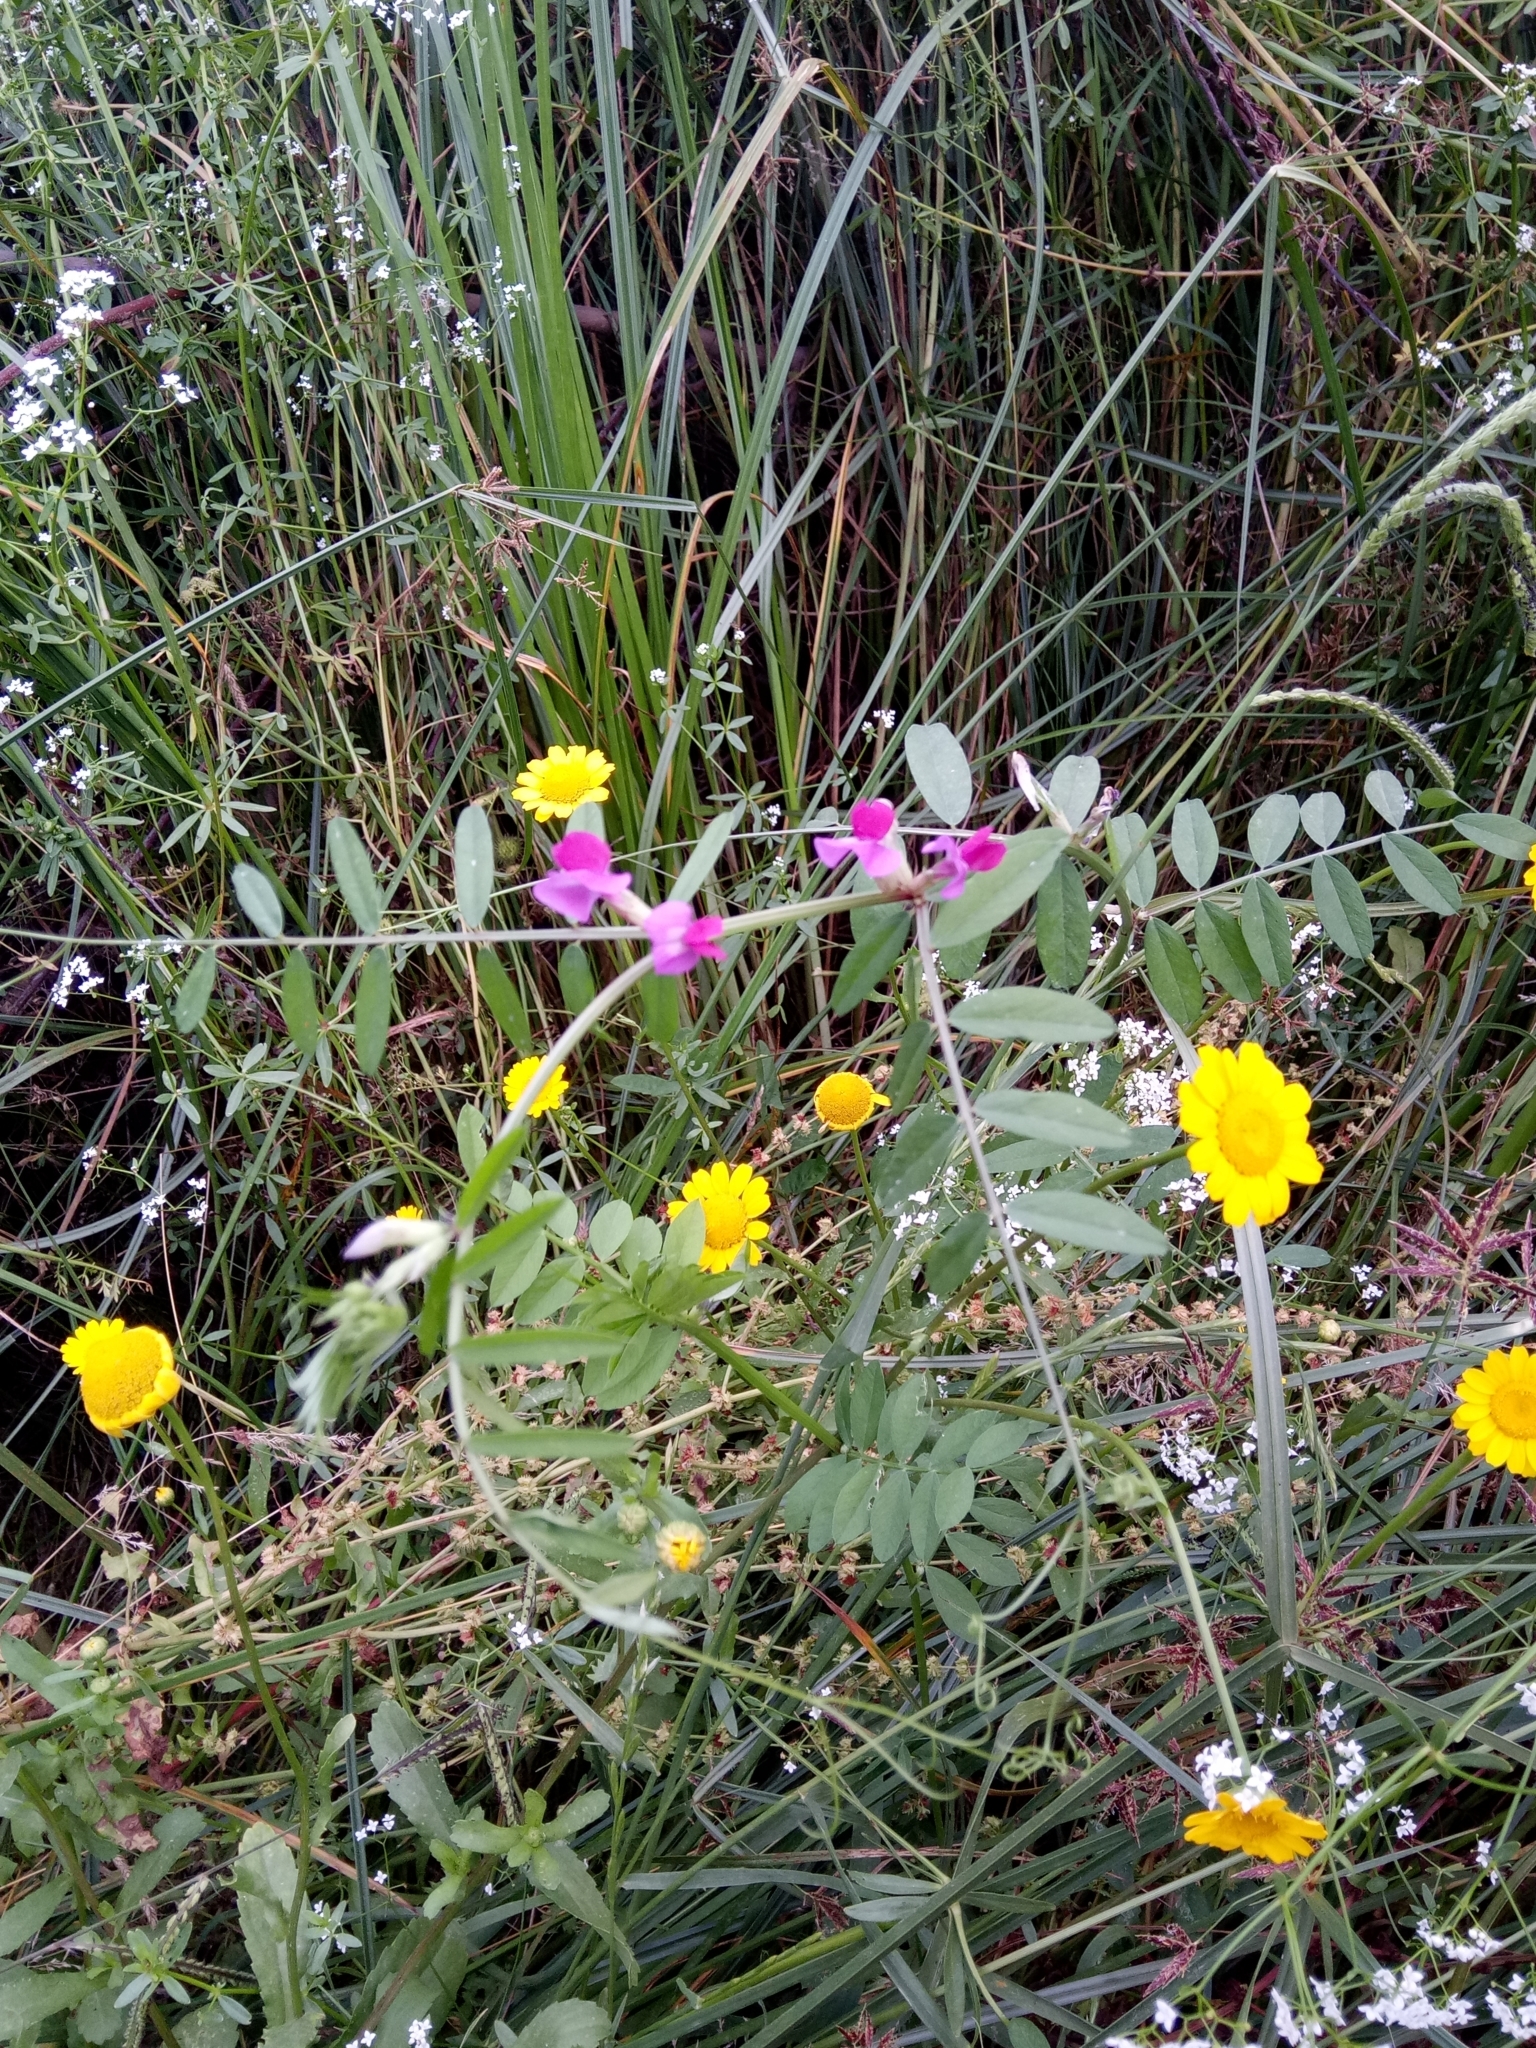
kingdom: Plantae
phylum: Tracheophyta
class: Magnoliopsida
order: Fabales
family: Fabaceae
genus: Vicia
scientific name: Vicia sativa
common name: Garden vetch
